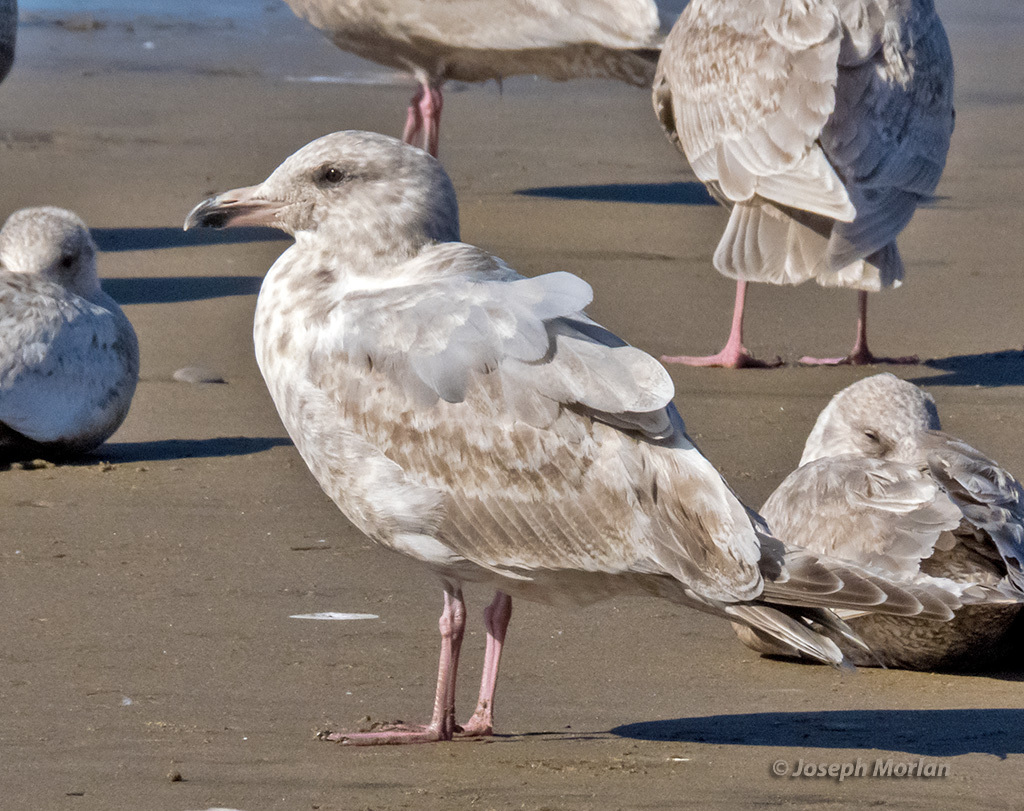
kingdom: Animalia
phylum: Chordata
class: Aves
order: Charadriiformes
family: Laridae
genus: Larus
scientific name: Larus glaucescens
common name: Glaucous-winged gull
